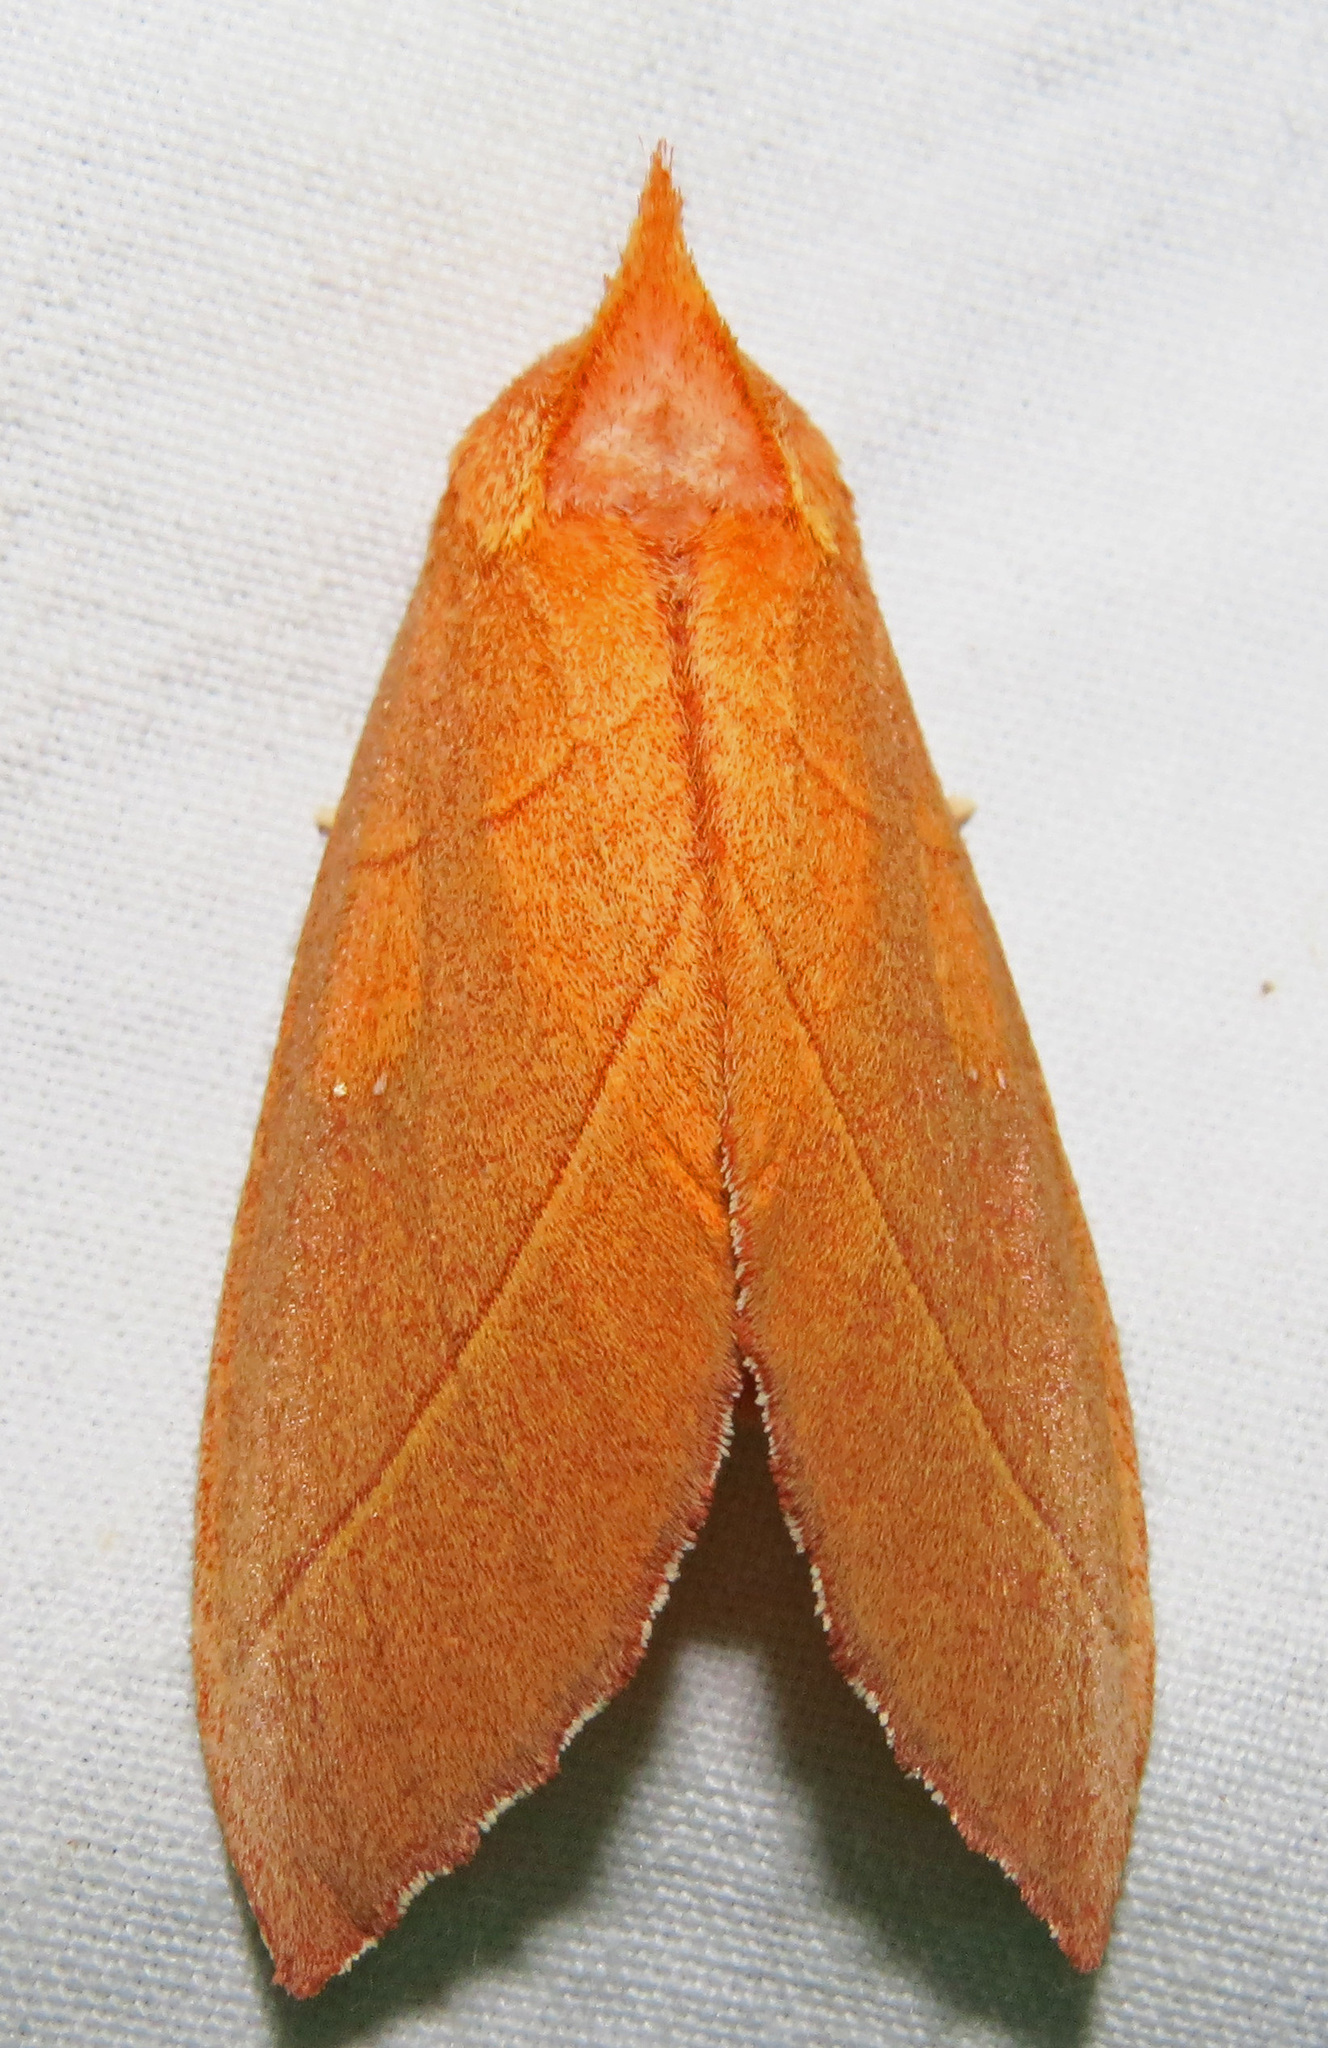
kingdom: Animalia
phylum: Arthropoda
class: Insecta
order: Lepidoptera
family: Notodontidae
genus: Nadata
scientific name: Nadata gibbosa
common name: White-dotted prominent
